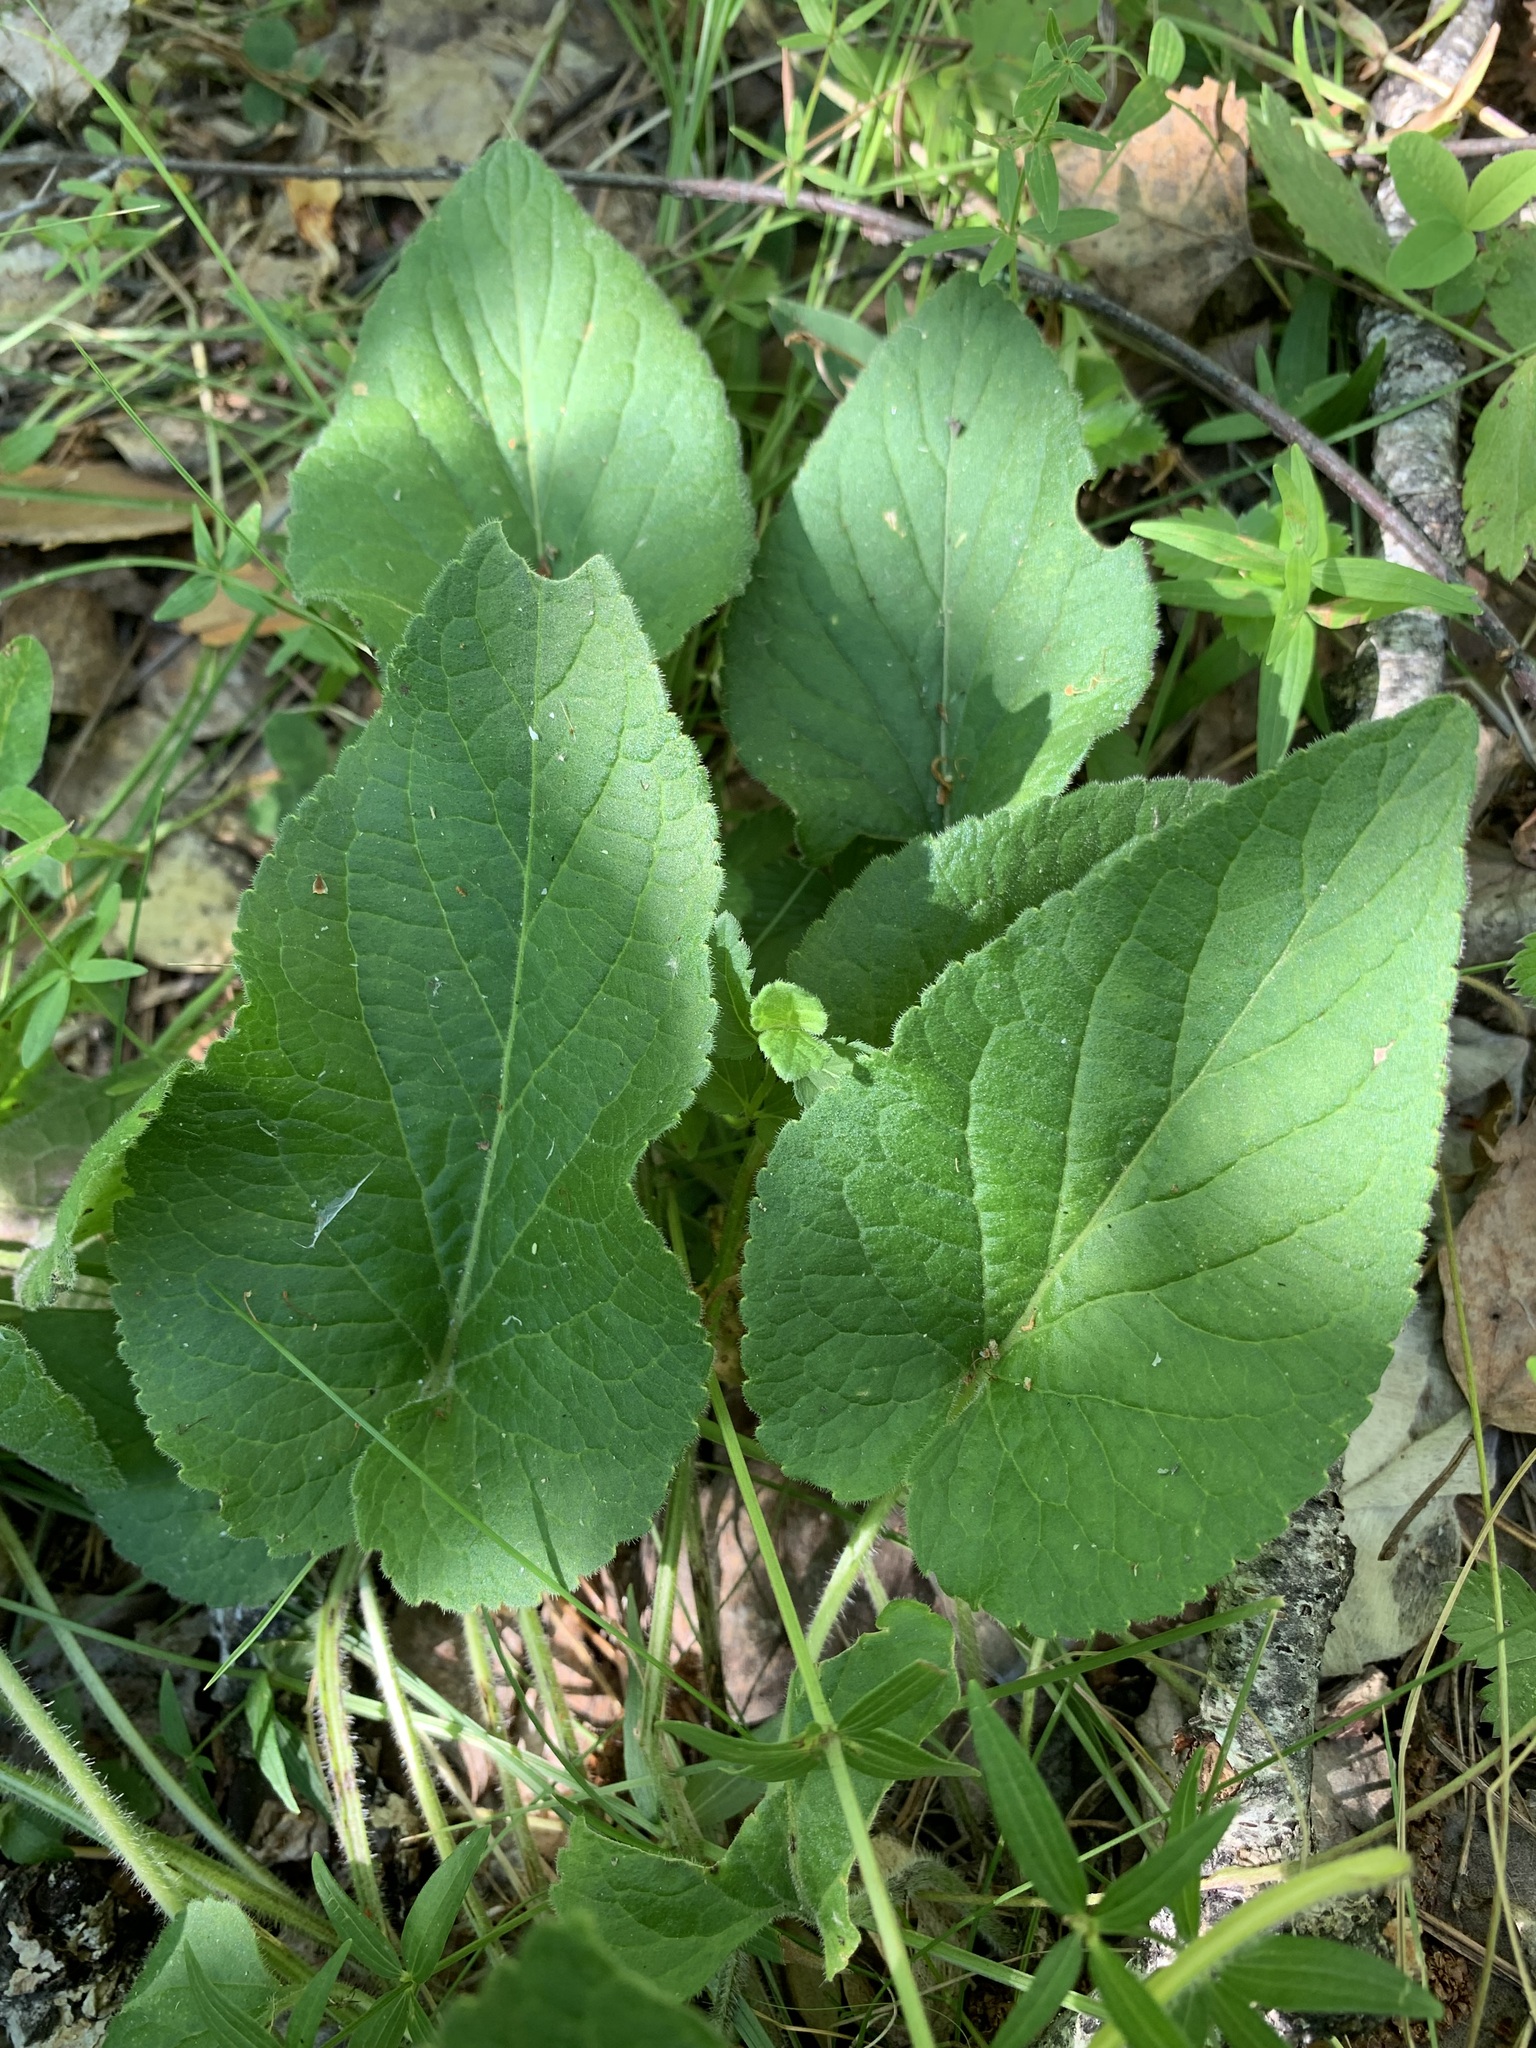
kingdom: Plantae
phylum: Tracheophyta
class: Magnoliopsida
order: Malpighiales
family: Violaceae
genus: Viola
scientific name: Viola hirta
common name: Hairy violet
